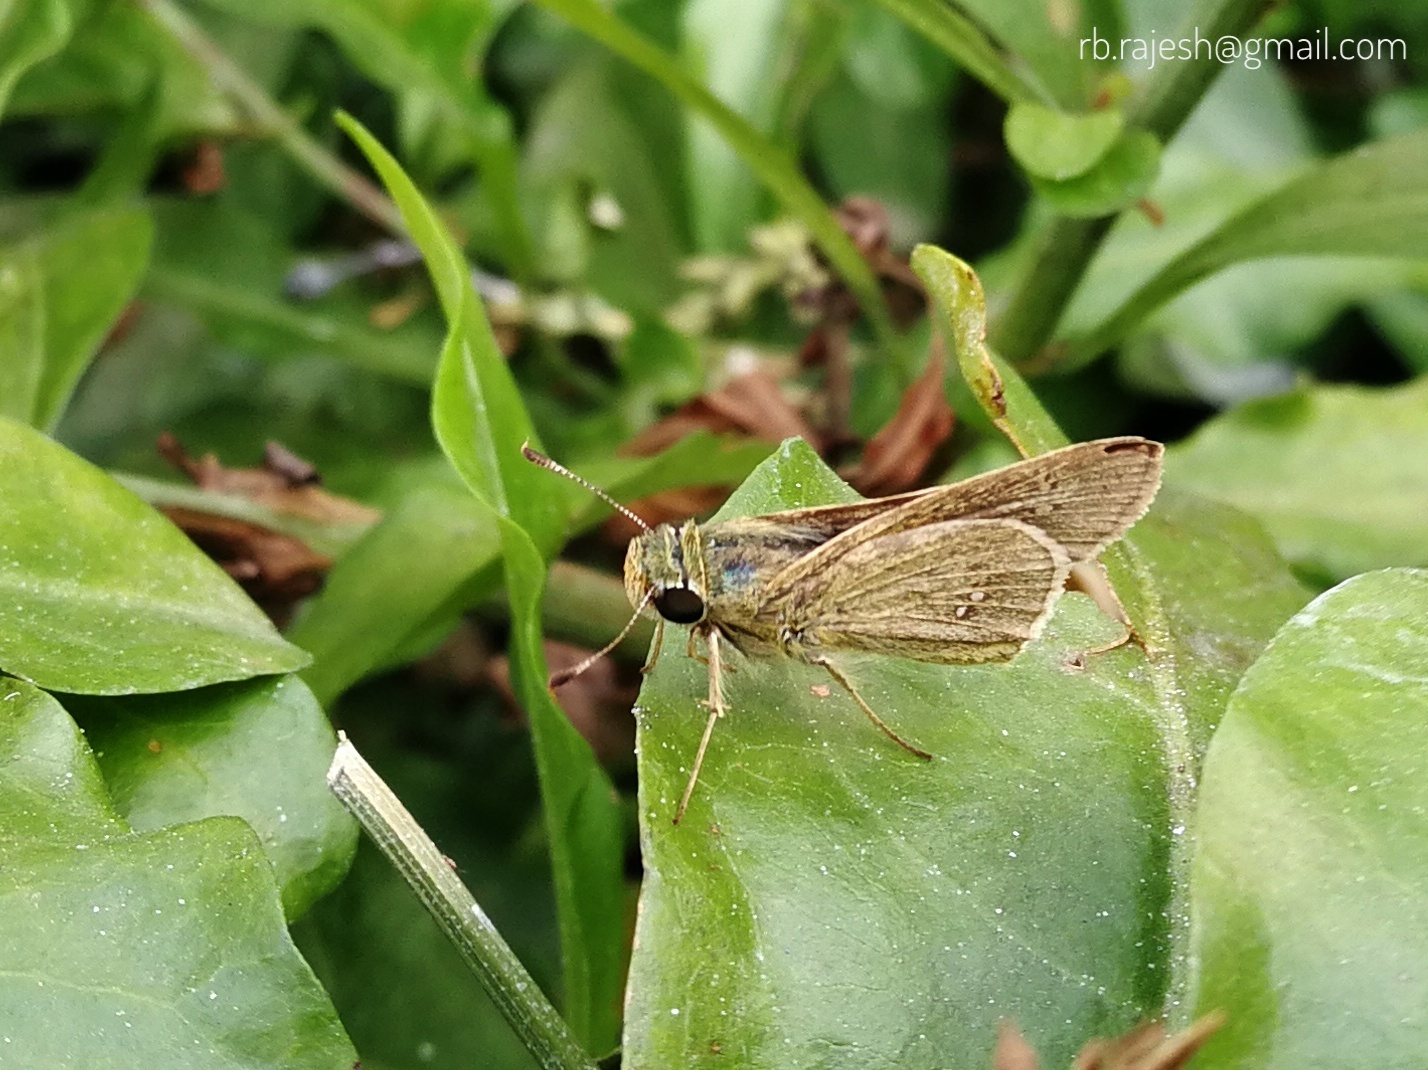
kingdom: Animalia
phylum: Arthropoda
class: Insecta
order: Lepidoptera
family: Hesperiidae
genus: Parnara
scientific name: Parnara naso
